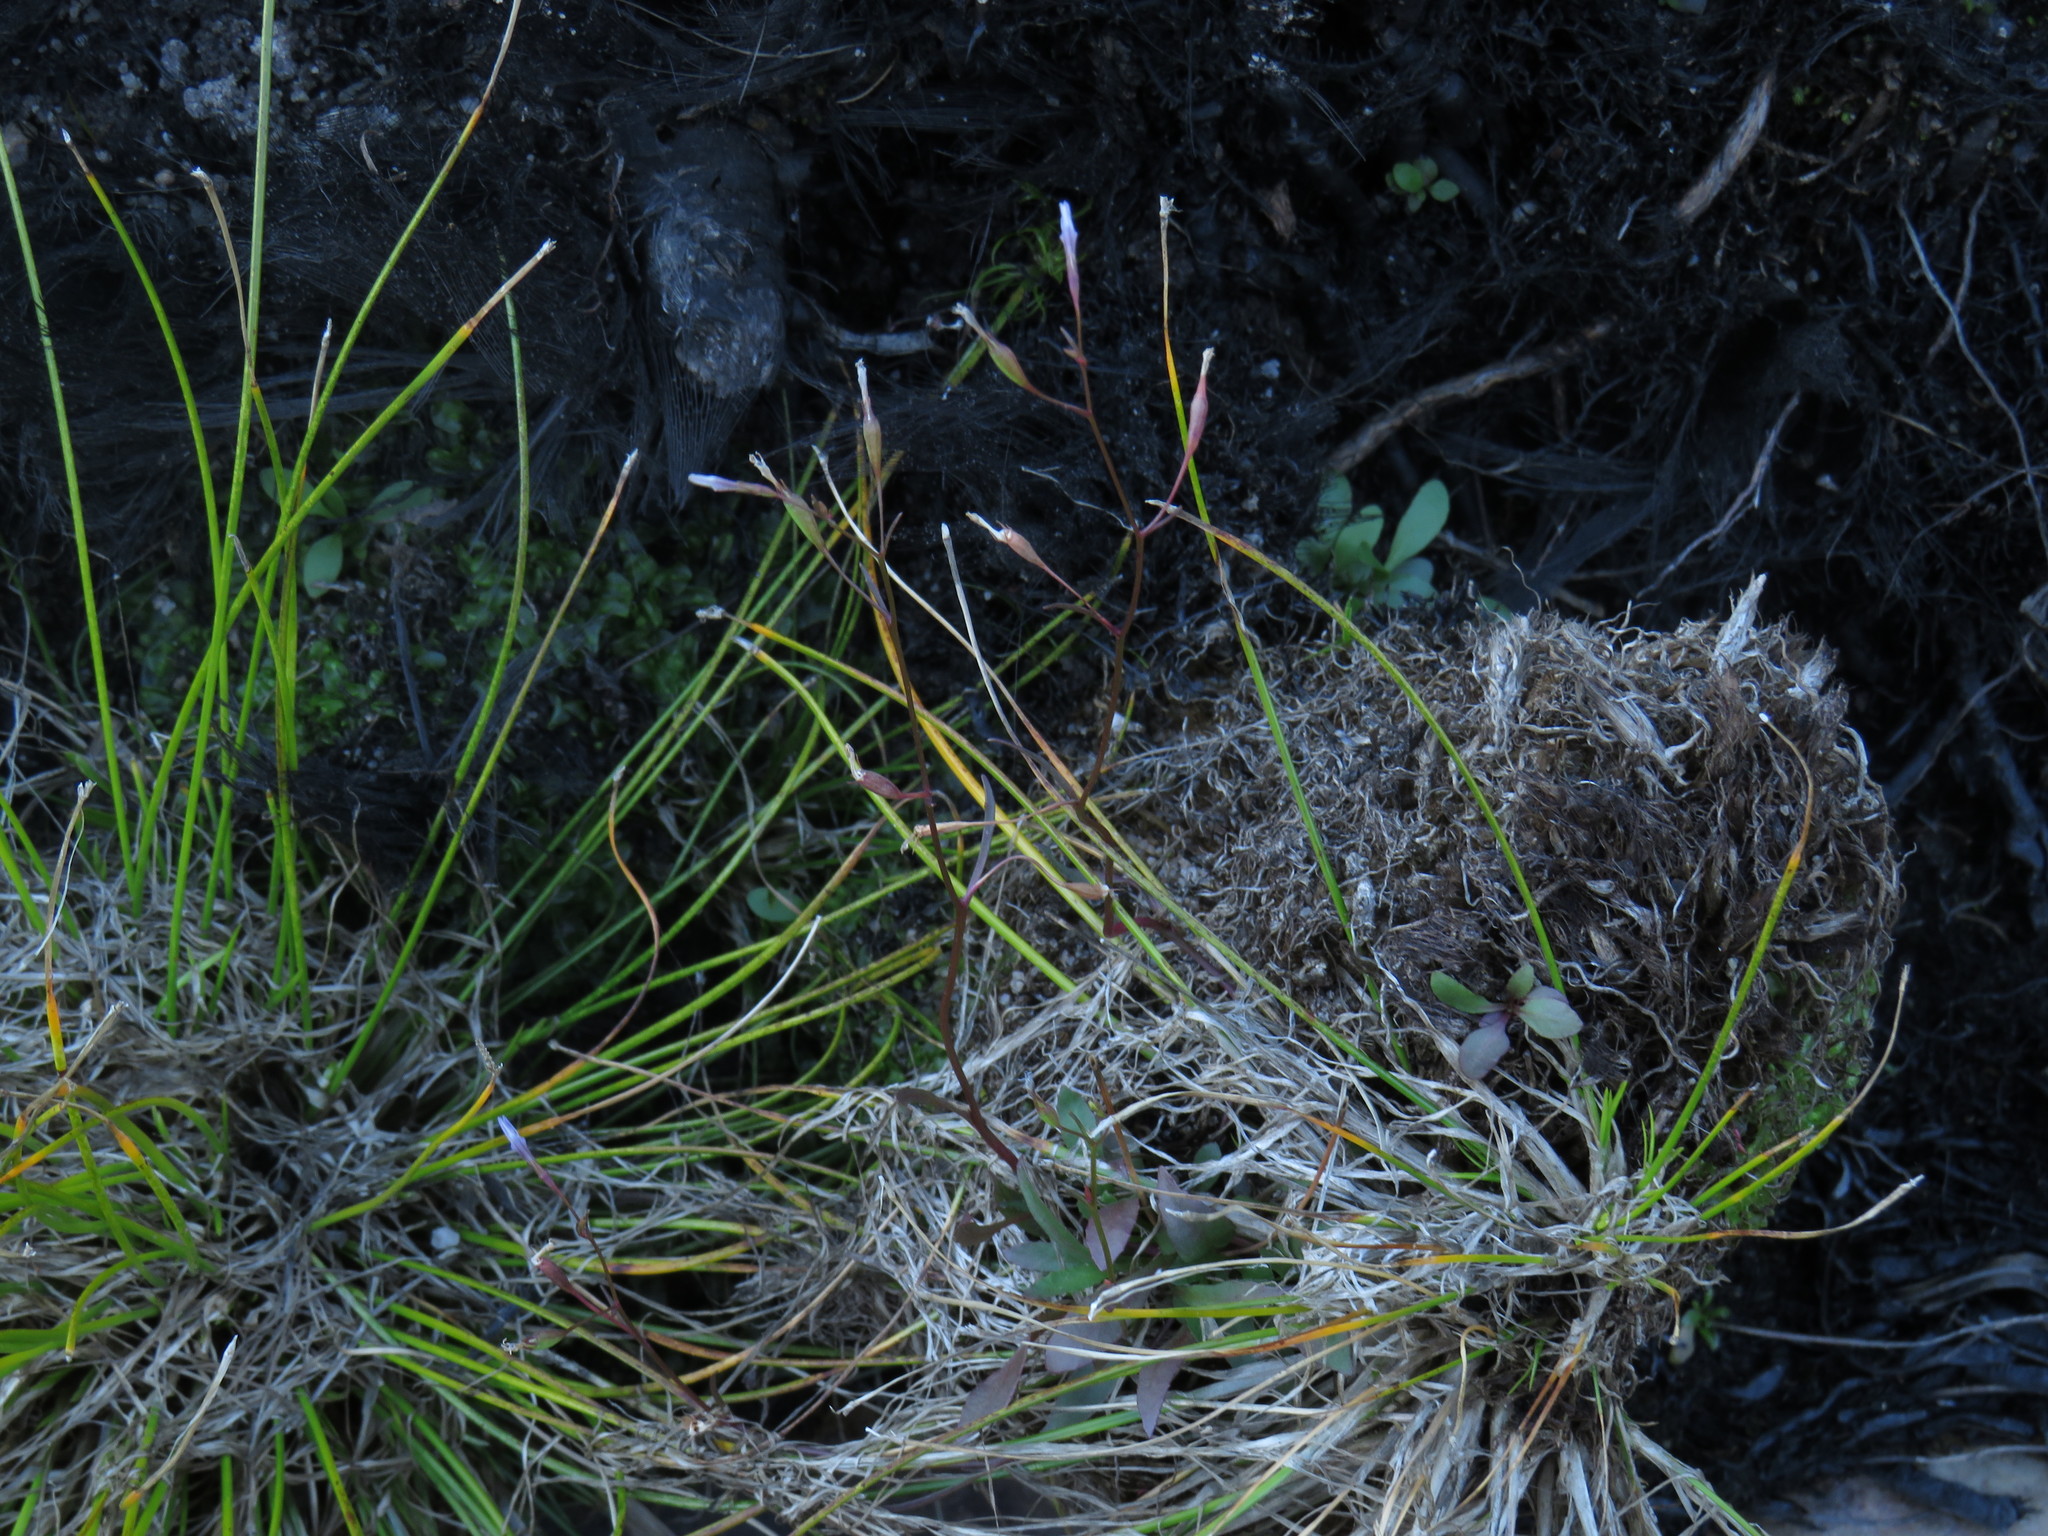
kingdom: Plantae
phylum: Tracheophyta
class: Magnoliopsida
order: Asterales
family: Campanulaceae
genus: Wimmerella
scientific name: Wimmerella arabidea
